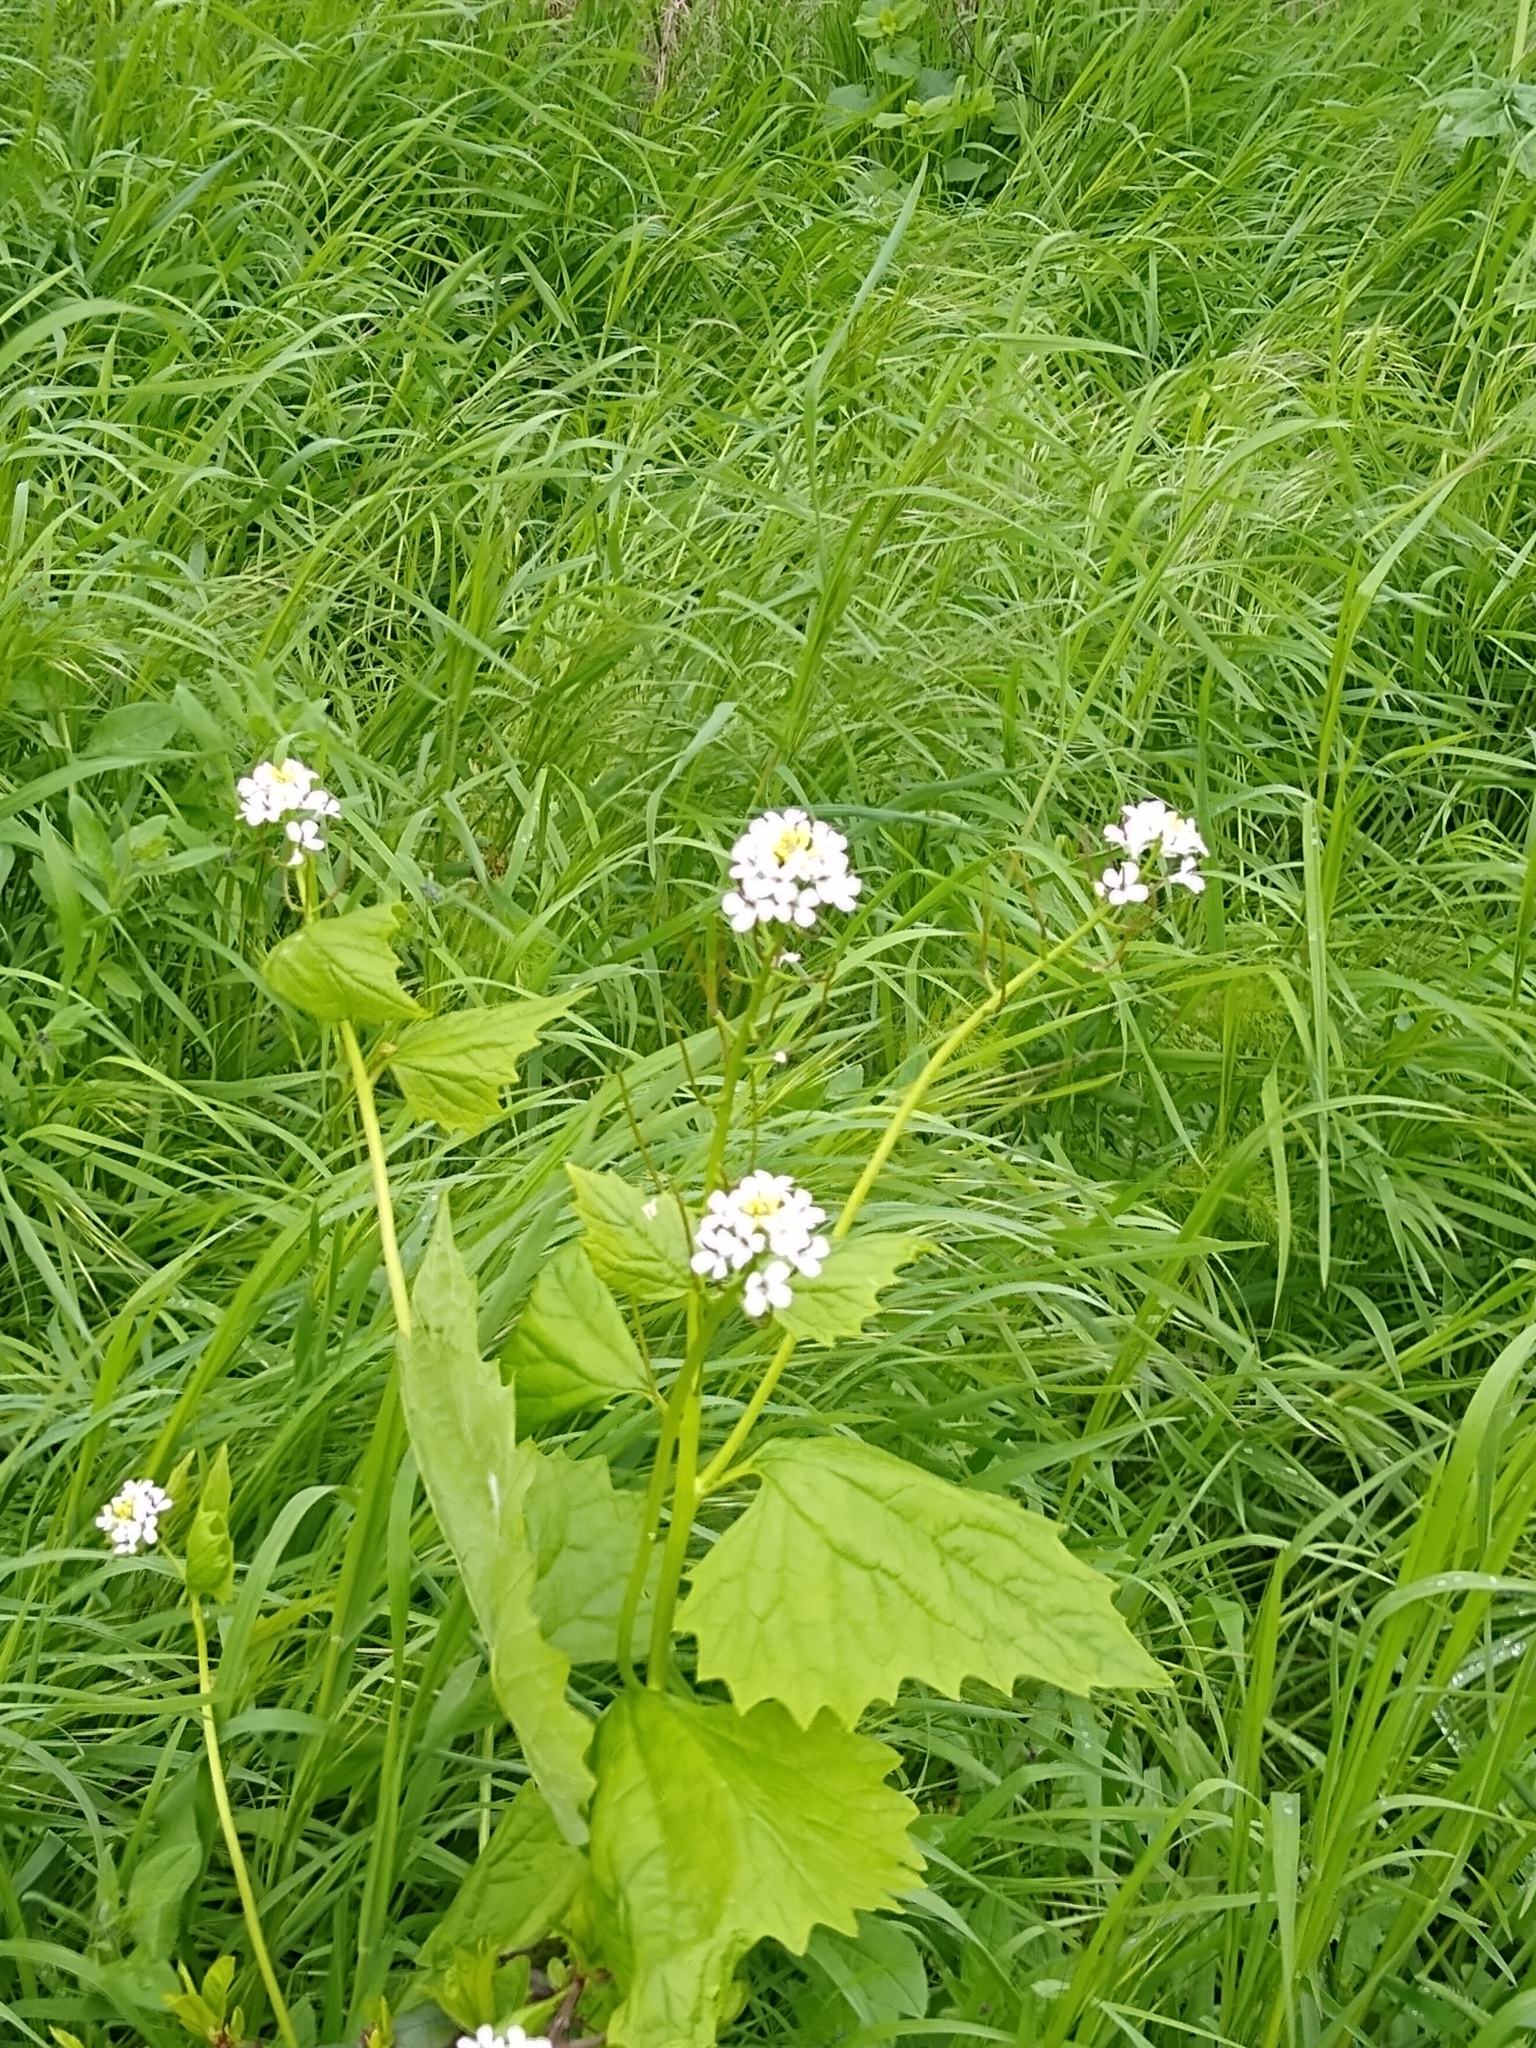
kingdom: Plantae
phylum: Tracheophyta
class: Magnoliopsida
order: Brassicales
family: Brassicaceae
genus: Alliaria
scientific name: Alliaria petiolata
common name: Garlic mustard
